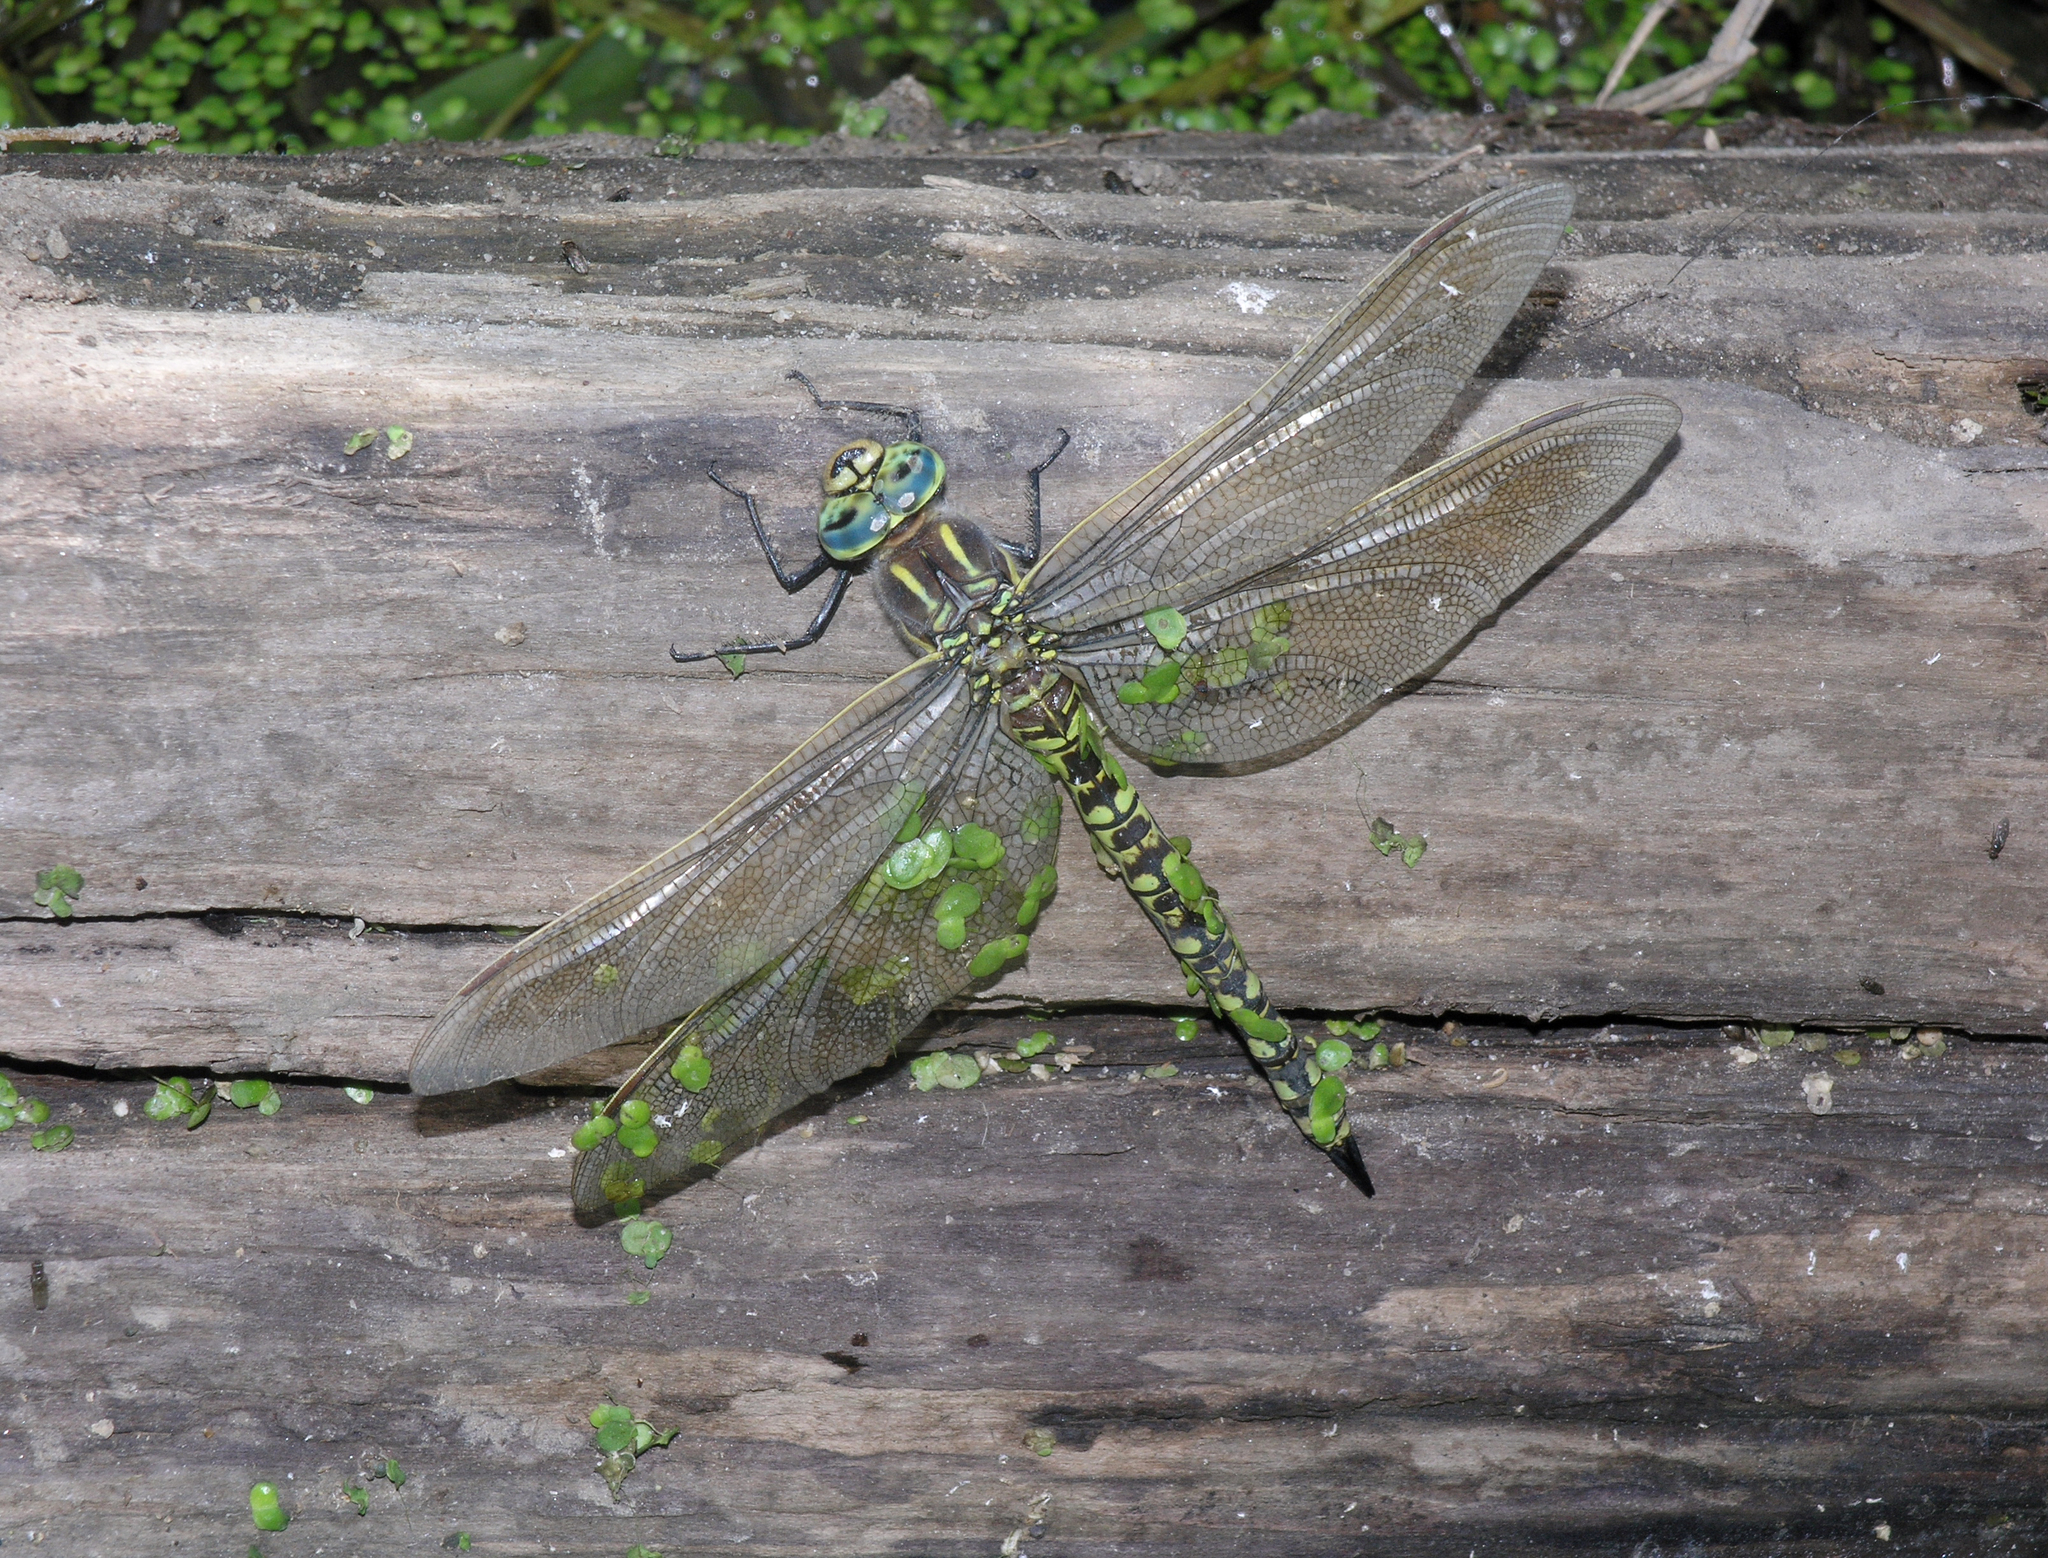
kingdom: Animalia
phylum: Arthropoda
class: Insecta
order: Odonata
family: Aeshnidae
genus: Aeshna
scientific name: Aeshna serrata
